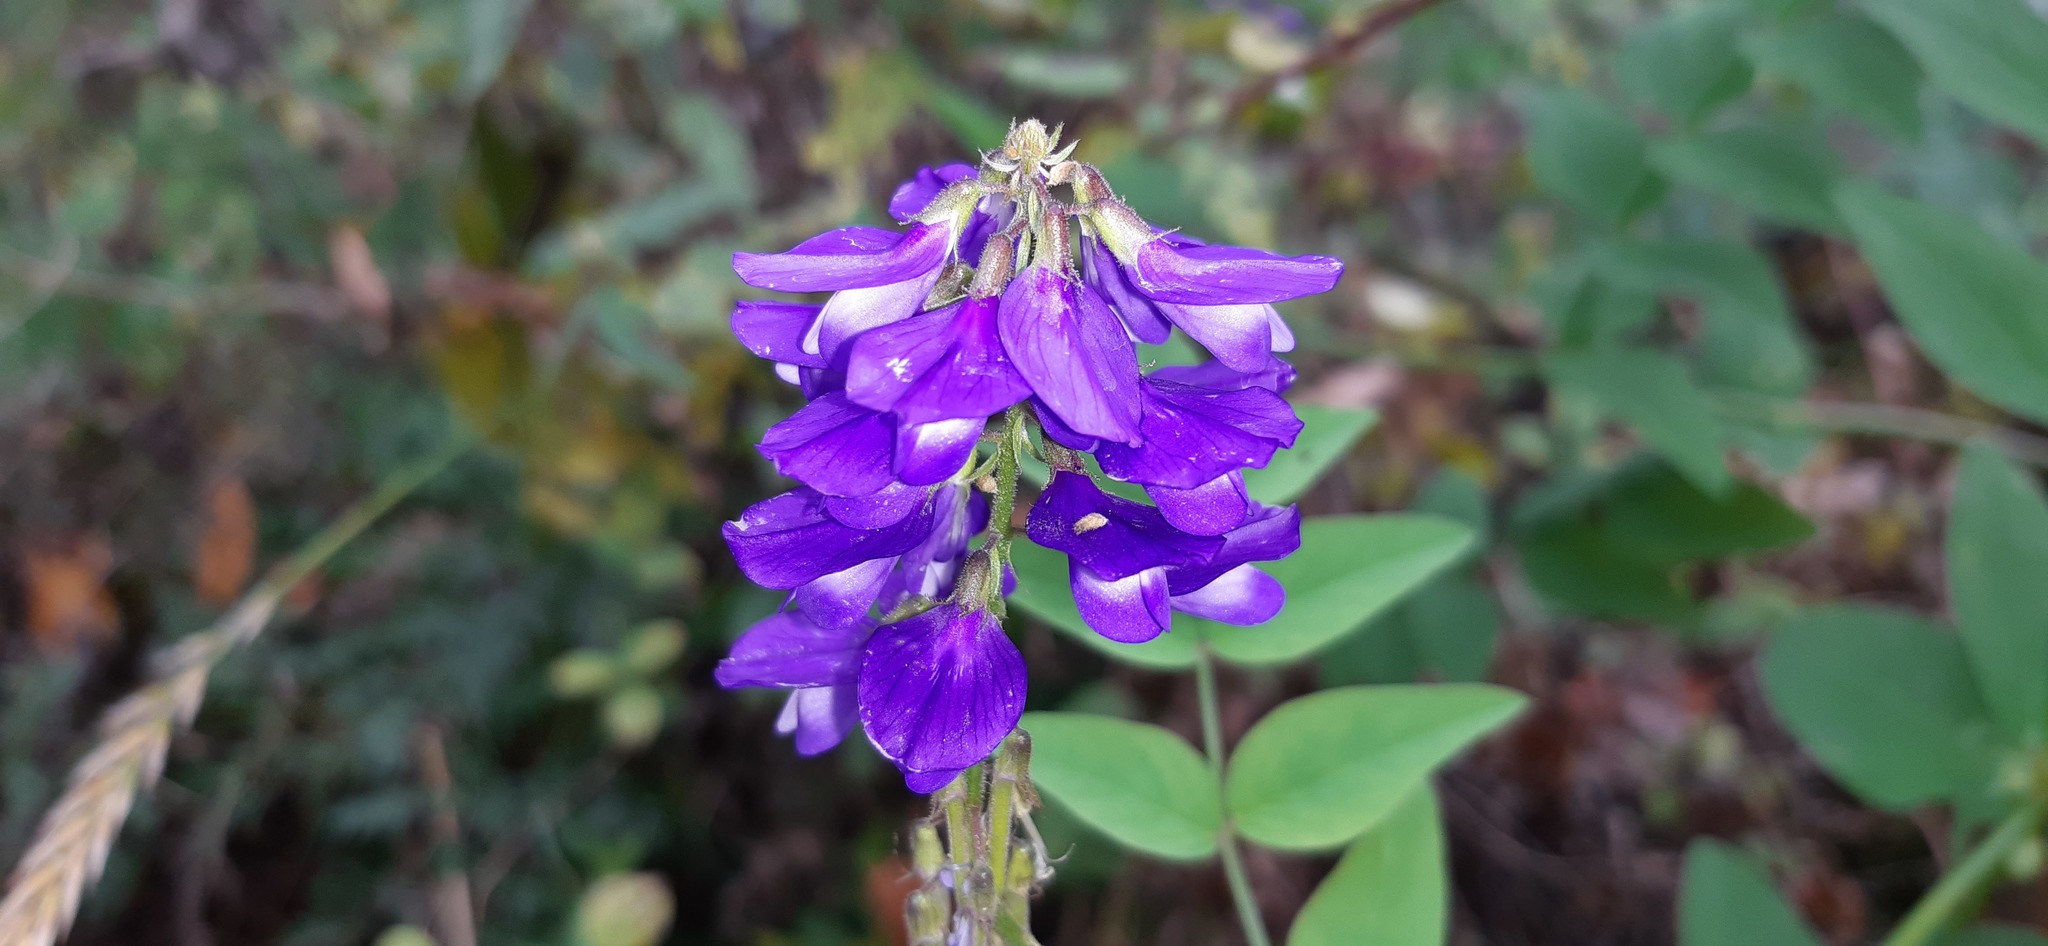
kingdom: Plantae
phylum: Tracheophyta
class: Magnoliopsida
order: Fabales
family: Fabaceae
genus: Galega
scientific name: Galega orientalis
